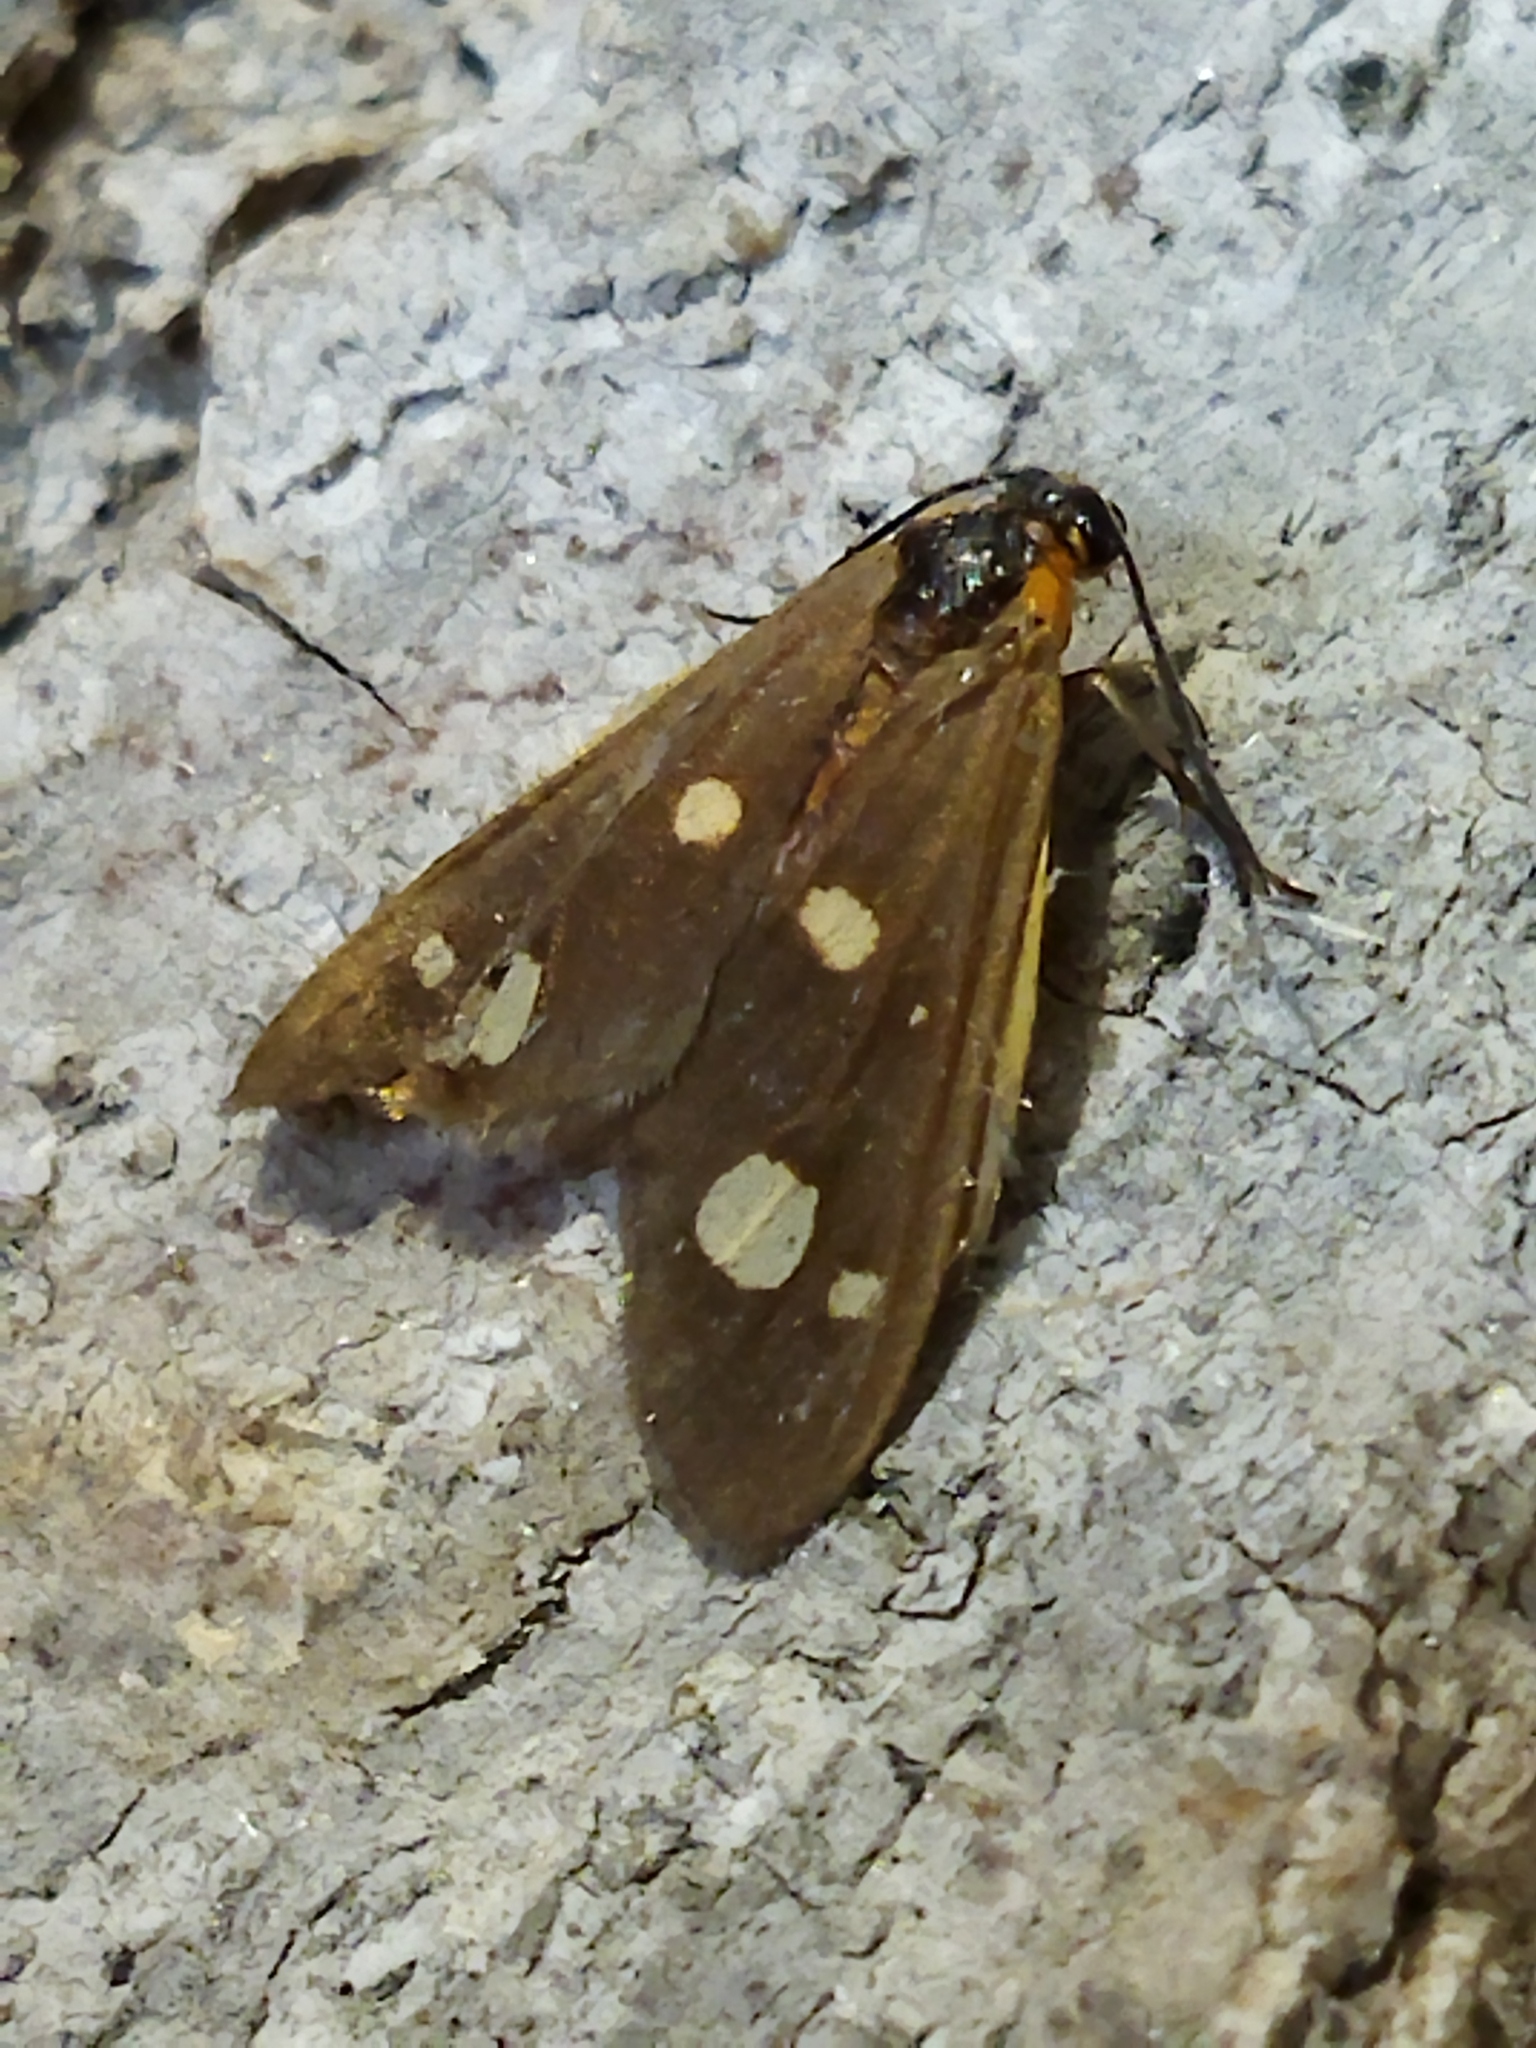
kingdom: Animalia
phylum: Arthropoda
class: Insecta
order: Lepidoptera
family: Erebidae
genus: Dysauxes
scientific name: Dysauxes punctata
